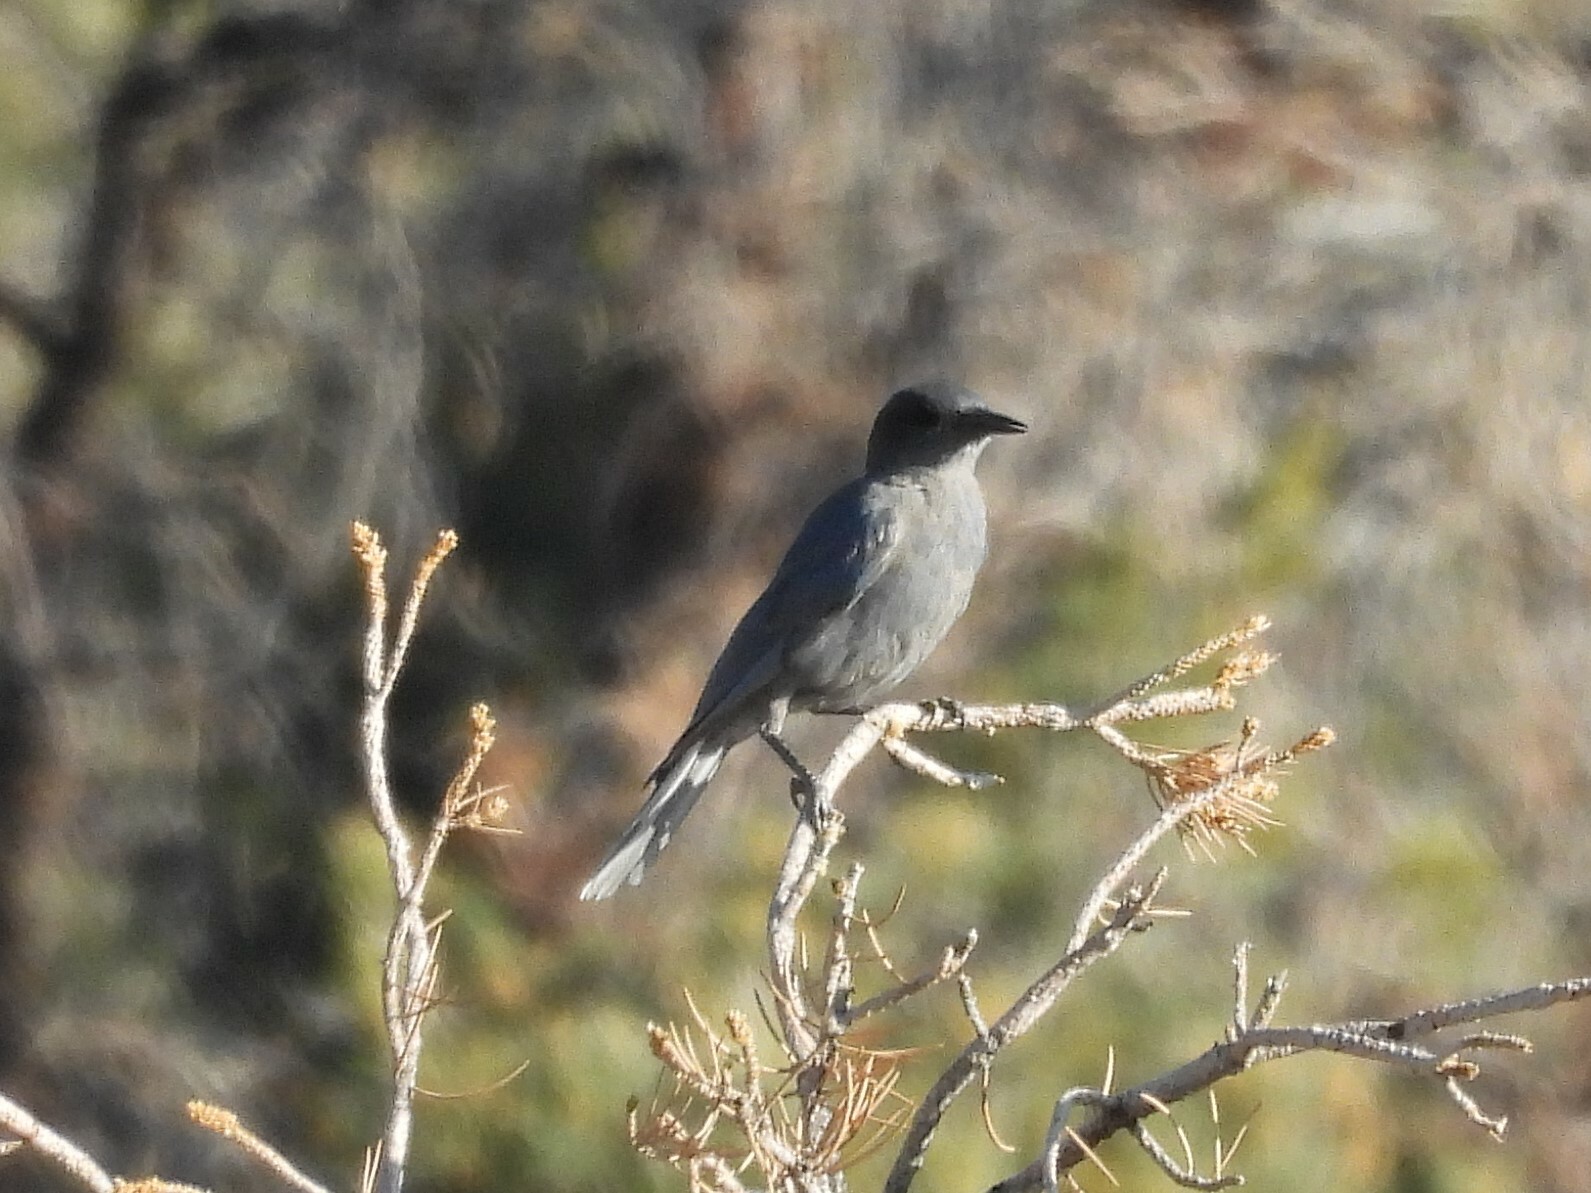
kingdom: Animalia
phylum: Chordata
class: Aves
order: Passeriformes
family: Corvidae
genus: Gymnorhinus
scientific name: Gymnorhinus cyanocephalus
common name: Pinyon jay
